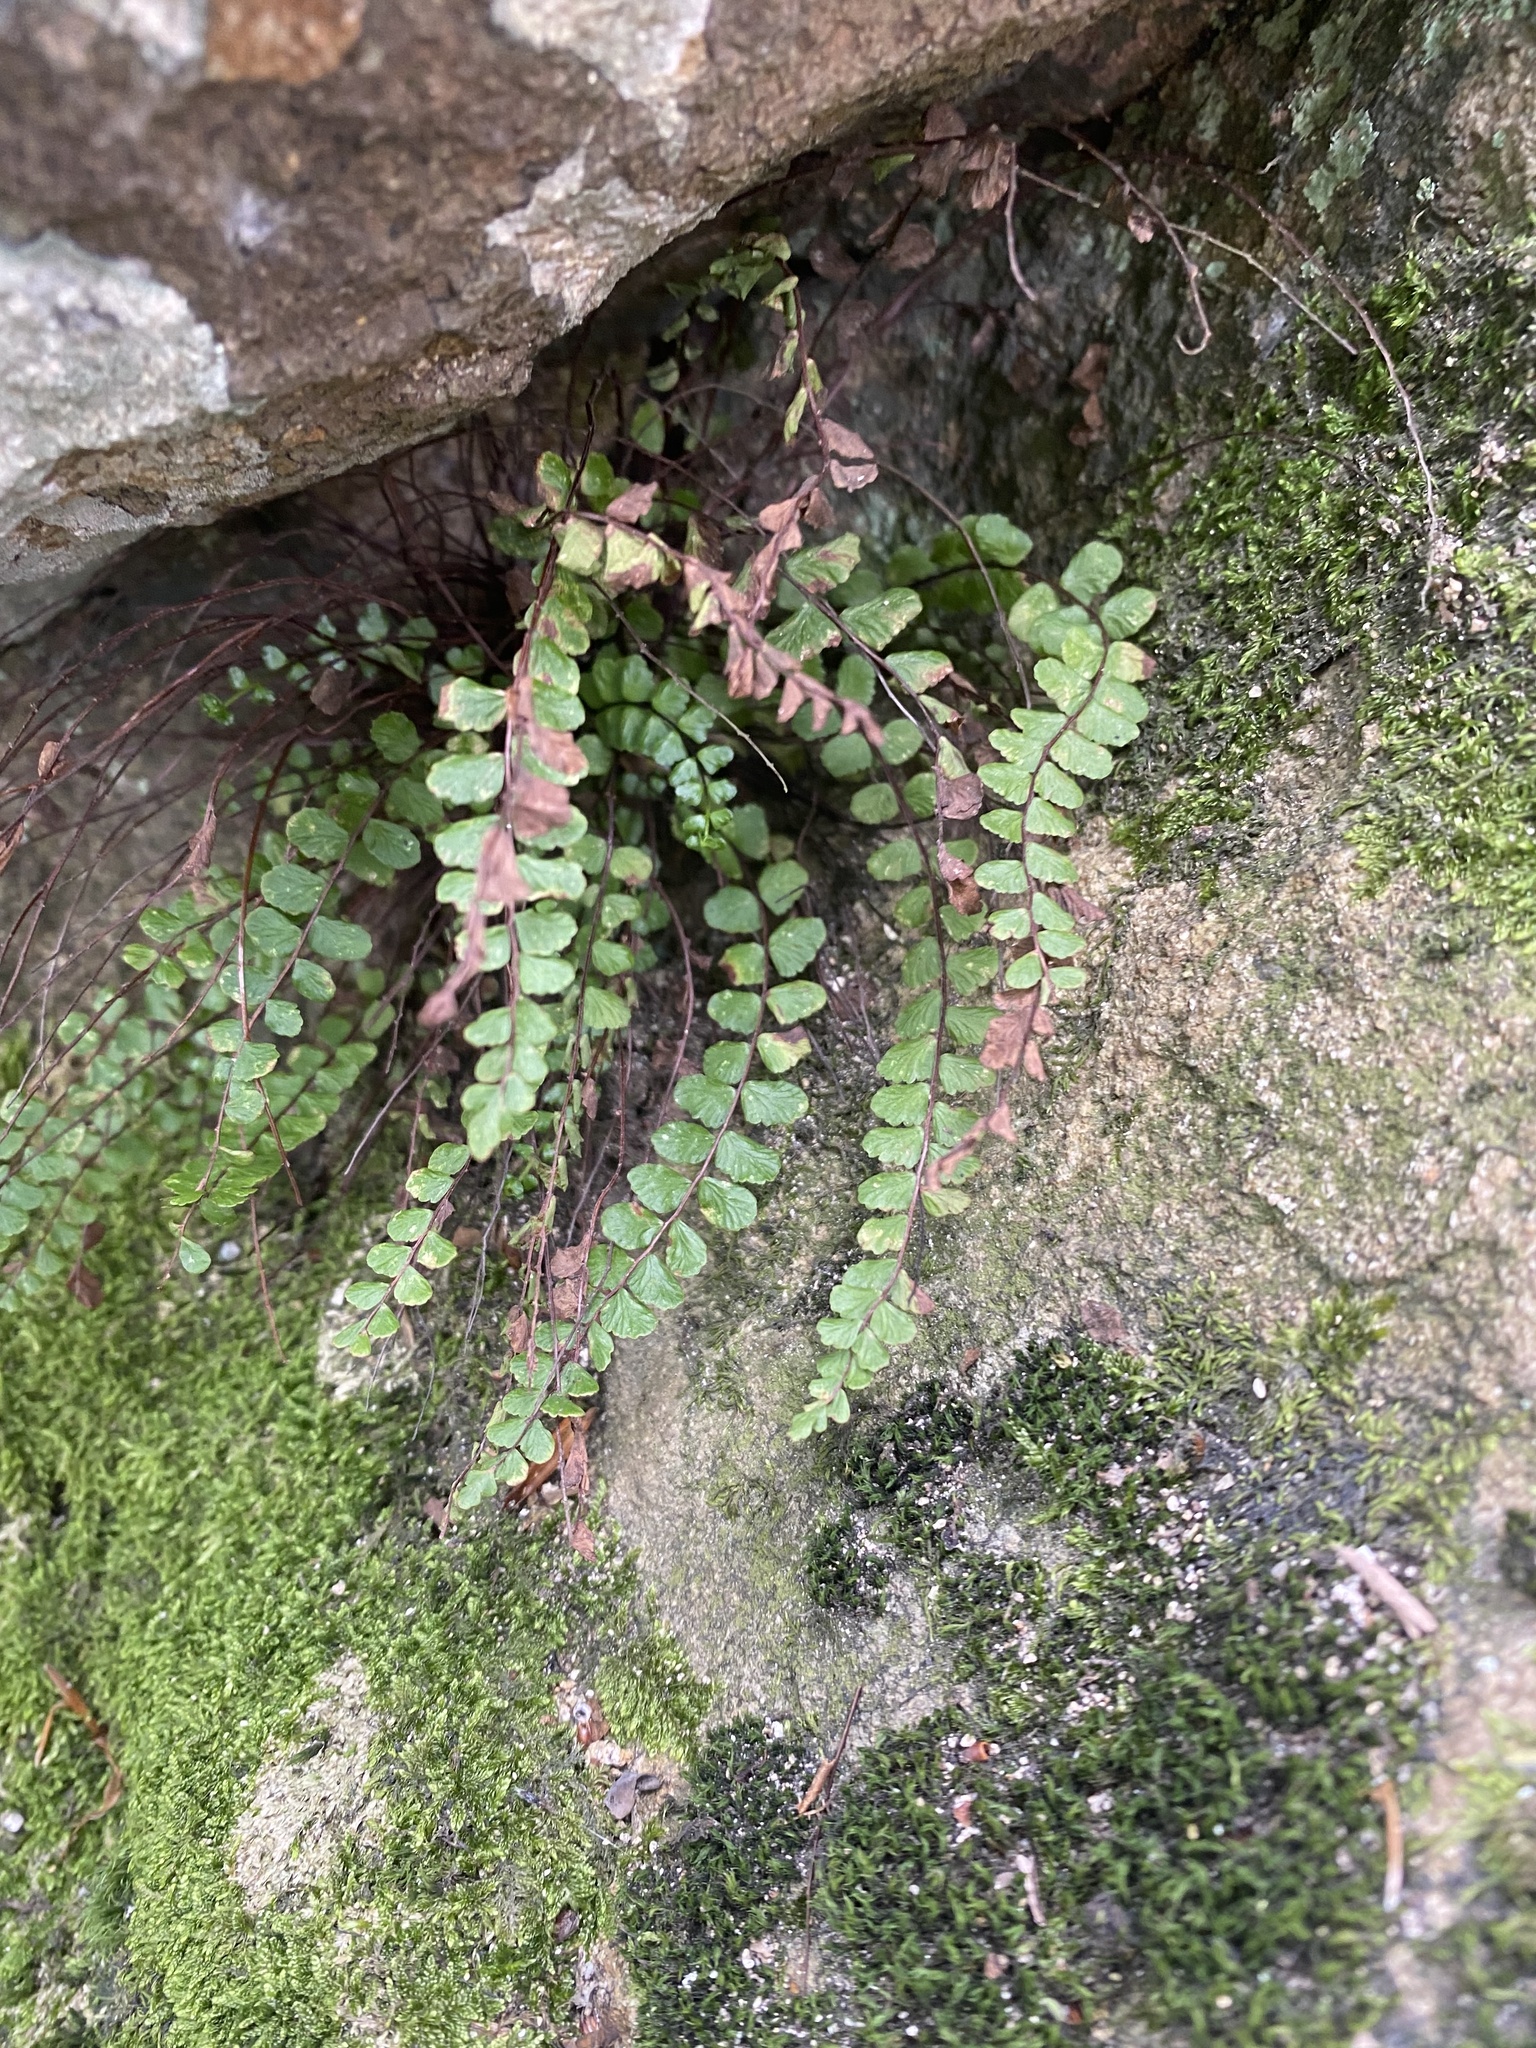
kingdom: Plantae
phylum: Tracheophyta
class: Polypodiopsida
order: Polypodiales
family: Aspleniaceae
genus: Asplenium
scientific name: Asplenium trichomanes
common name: Maidenhair spleenwort
